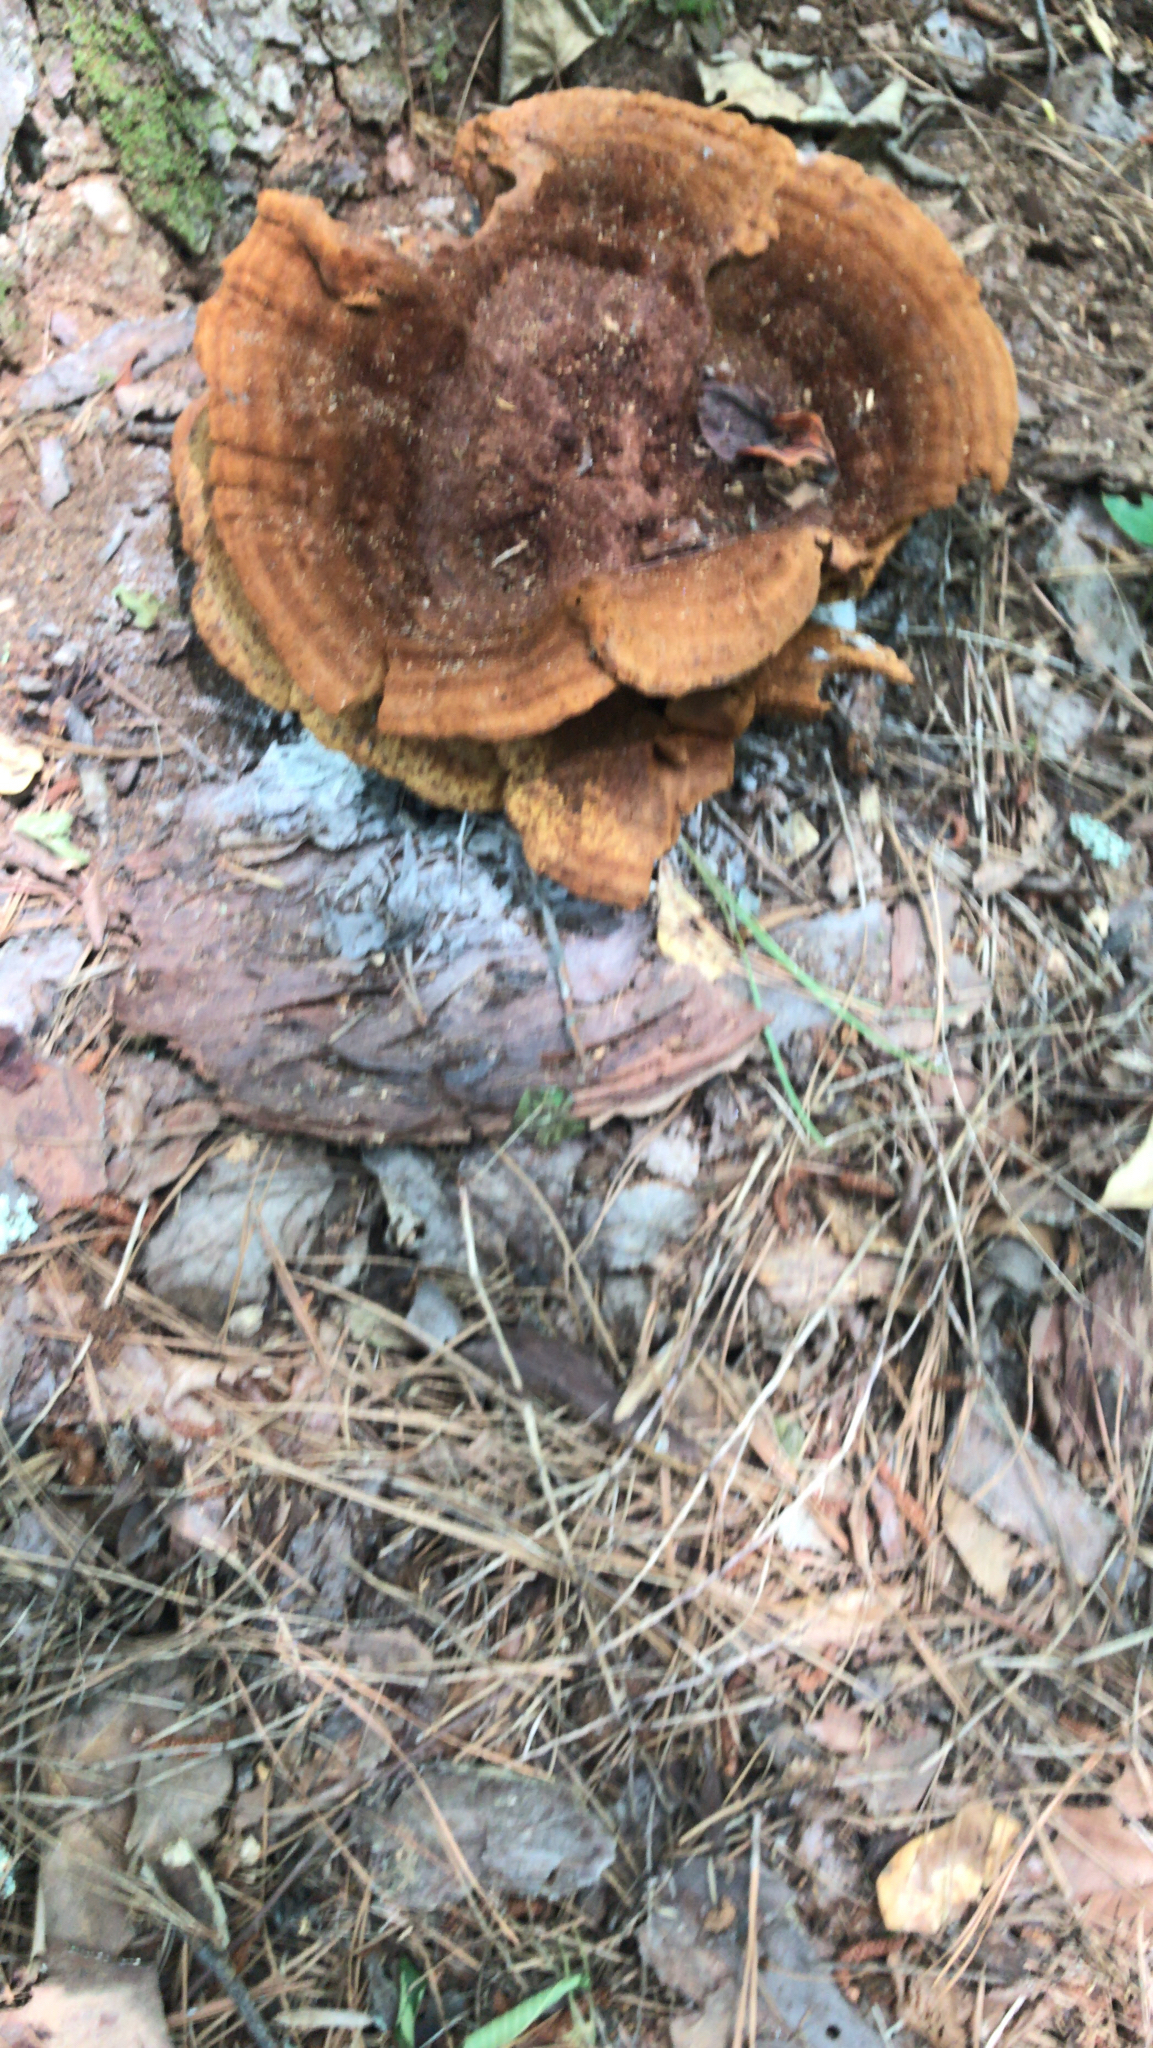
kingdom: Fungi
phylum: Basidiomycota
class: Agaricomycetes
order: Polyporales
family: Laetiporaceae
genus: Phaeolus
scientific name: Phaeolus schweinitzii
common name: Dyer's mazegill
